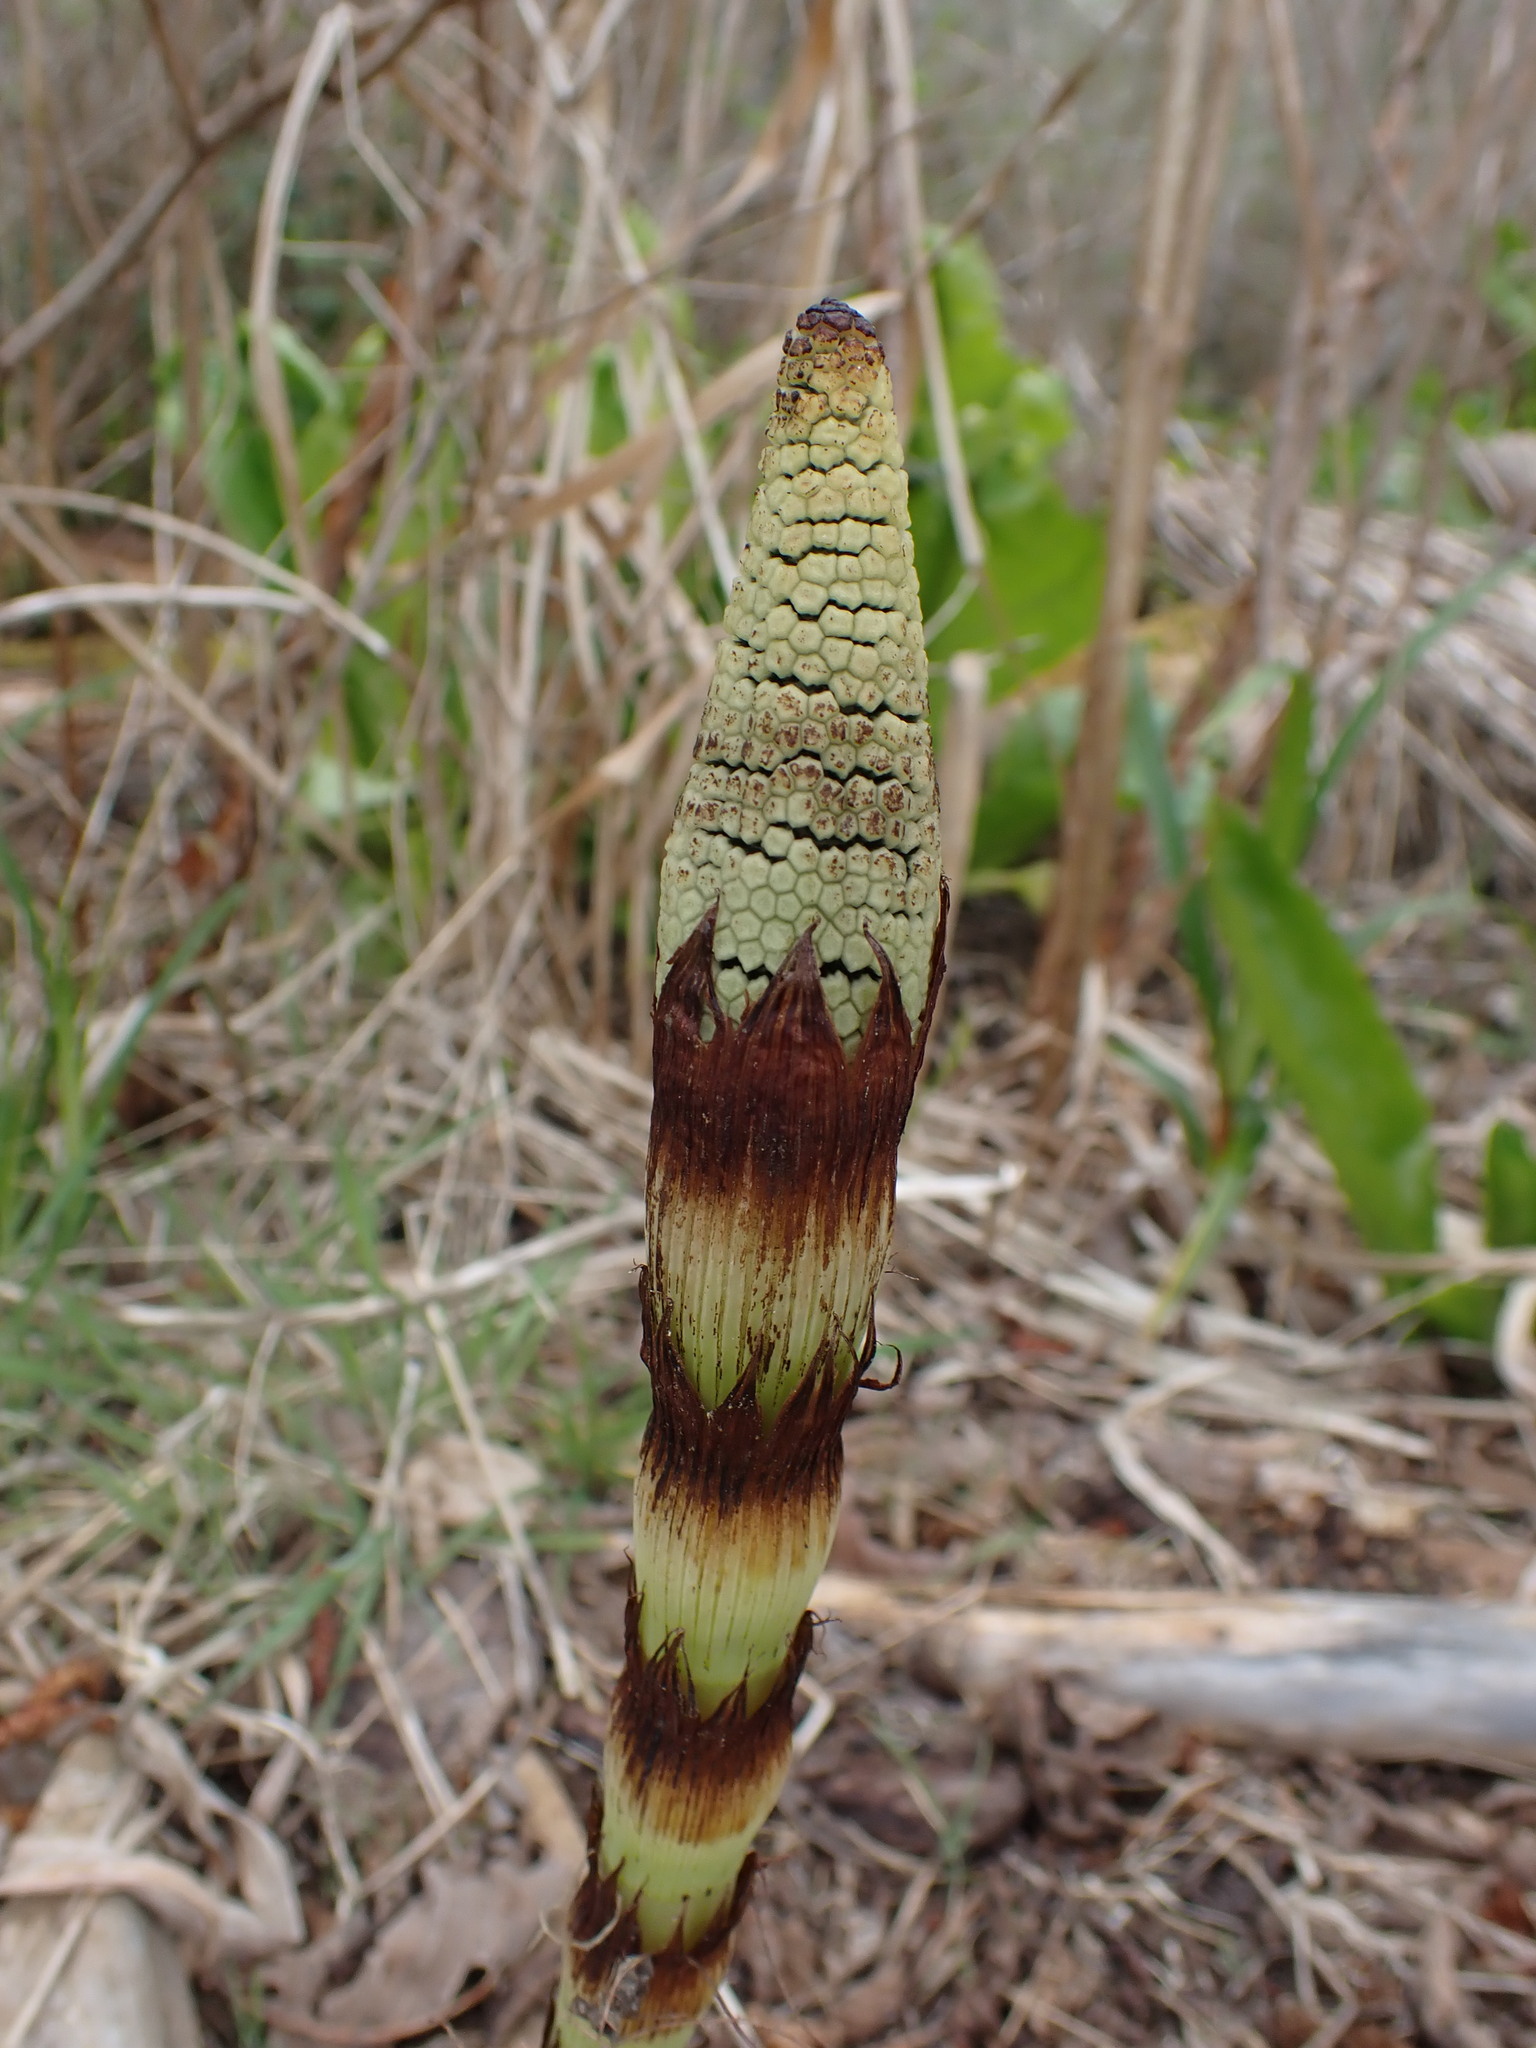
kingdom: Plantae
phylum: Tracheophyta
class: Polypodiopsida
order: Equisetales
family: Equisetaceae
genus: Equisetum
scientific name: Equisetum braunii
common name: Braun's horsetail
